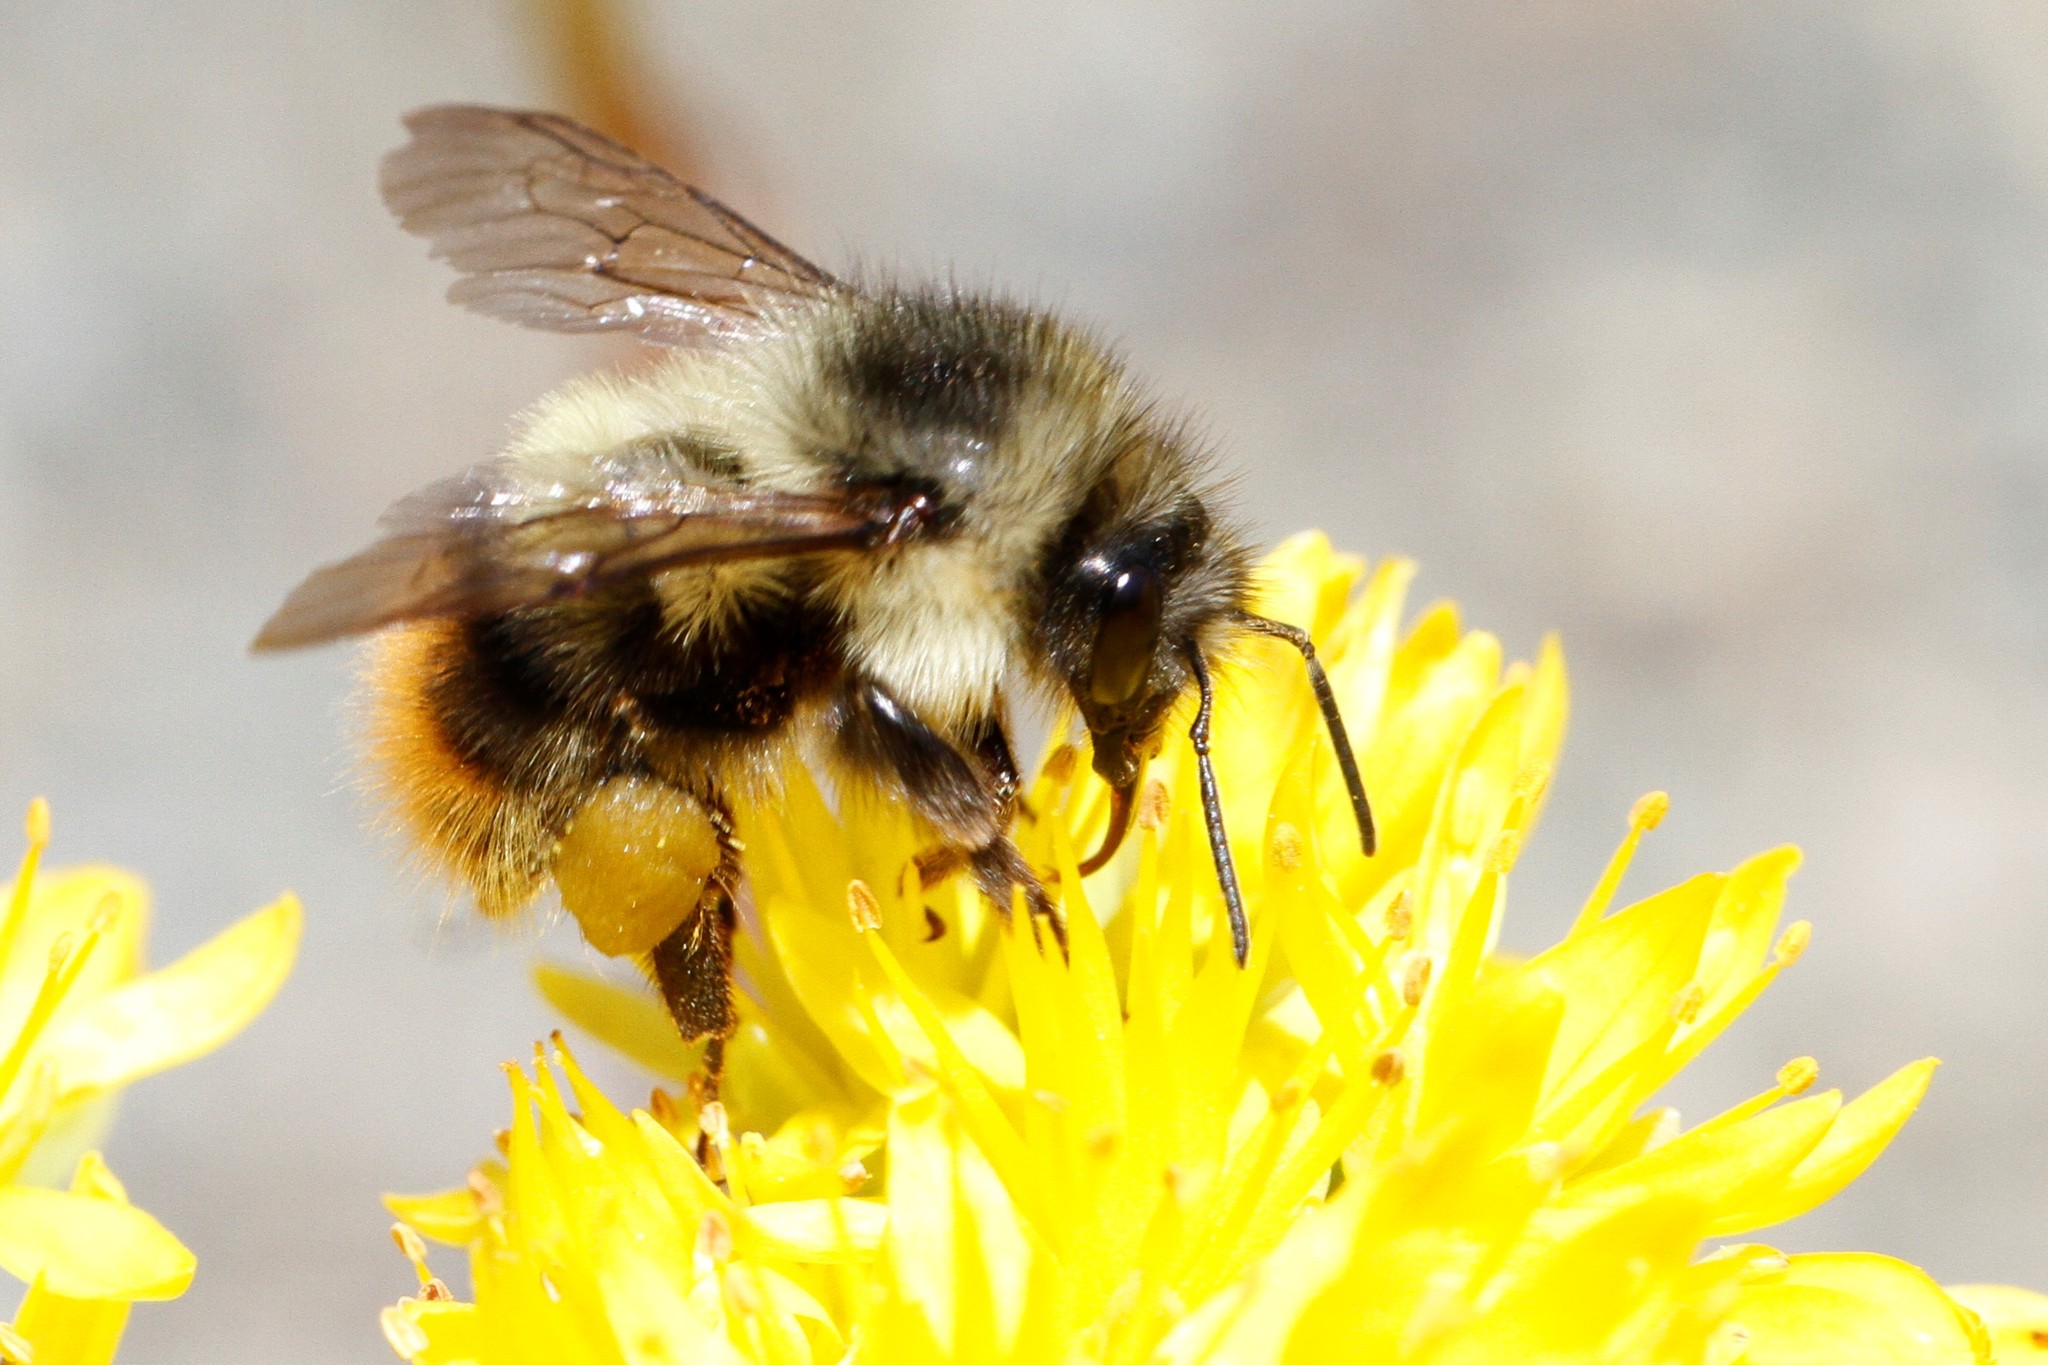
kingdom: Animalia
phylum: Arthropoda
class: Insecta
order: Hymenoptera
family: Apidae
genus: Bombus
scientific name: Bombus mixtus
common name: Fuzzy-horned bumble bee
